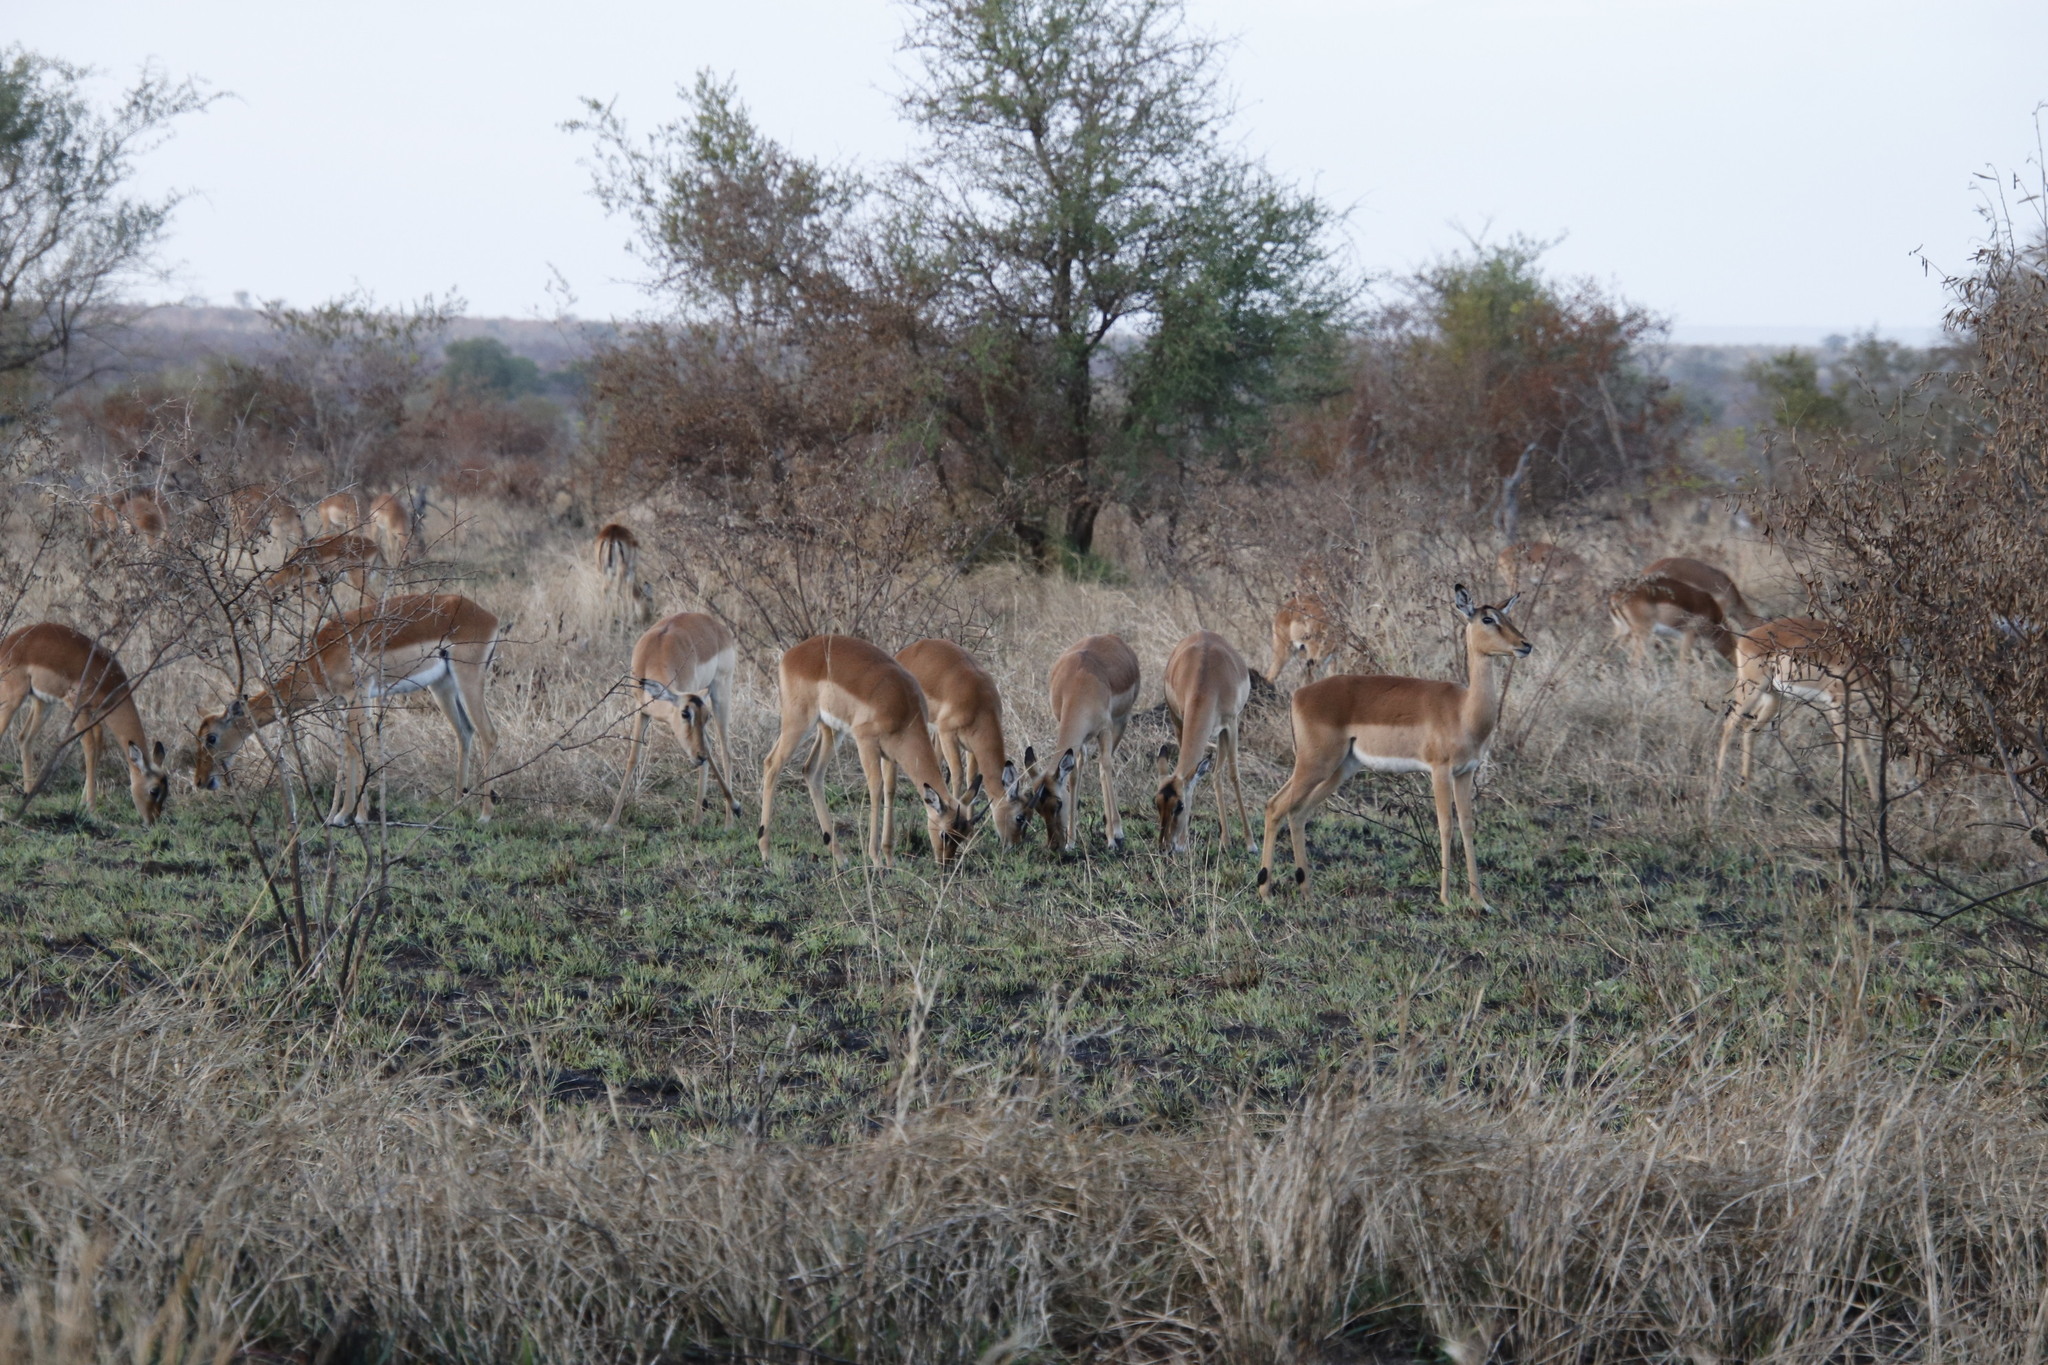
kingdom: Animalia
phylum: Chordata
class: Mammalia
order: Artiodactyla
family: Bovidae
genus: Aepyceros
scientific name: Aepyceros melampus
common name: Impala
